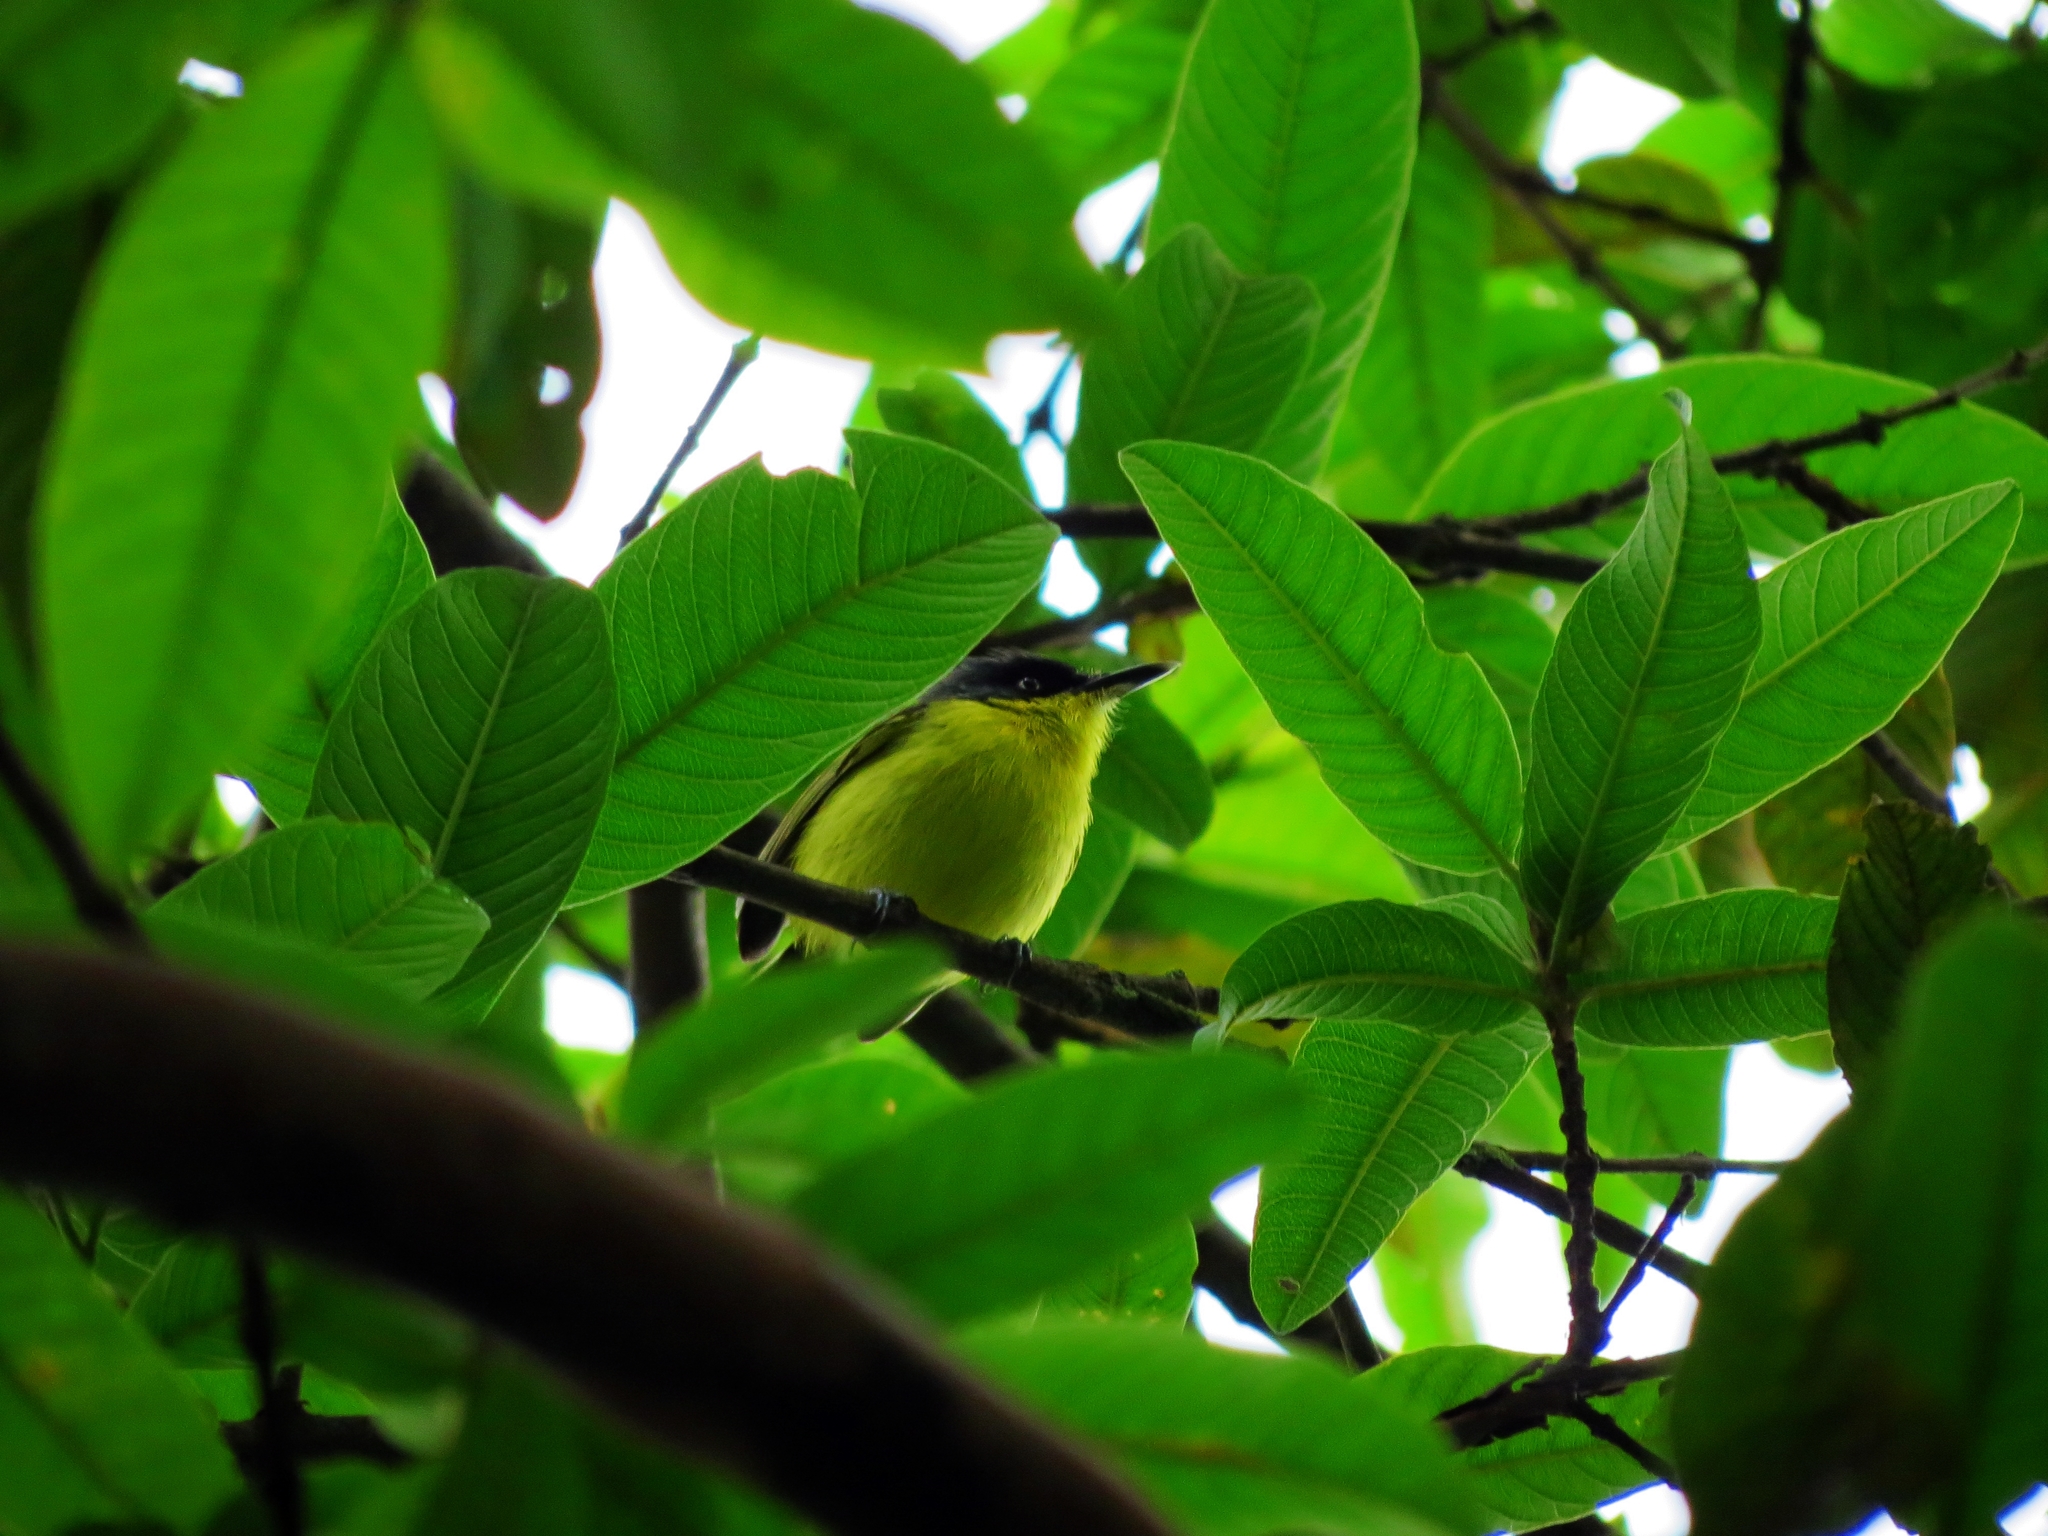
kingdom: Animalia
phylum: Chordata
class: Aves
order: Passeriformes
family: Tyrannidae
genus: Todirostrum
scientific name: Todirostrum cinereum
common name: Common tody-flycatcher
